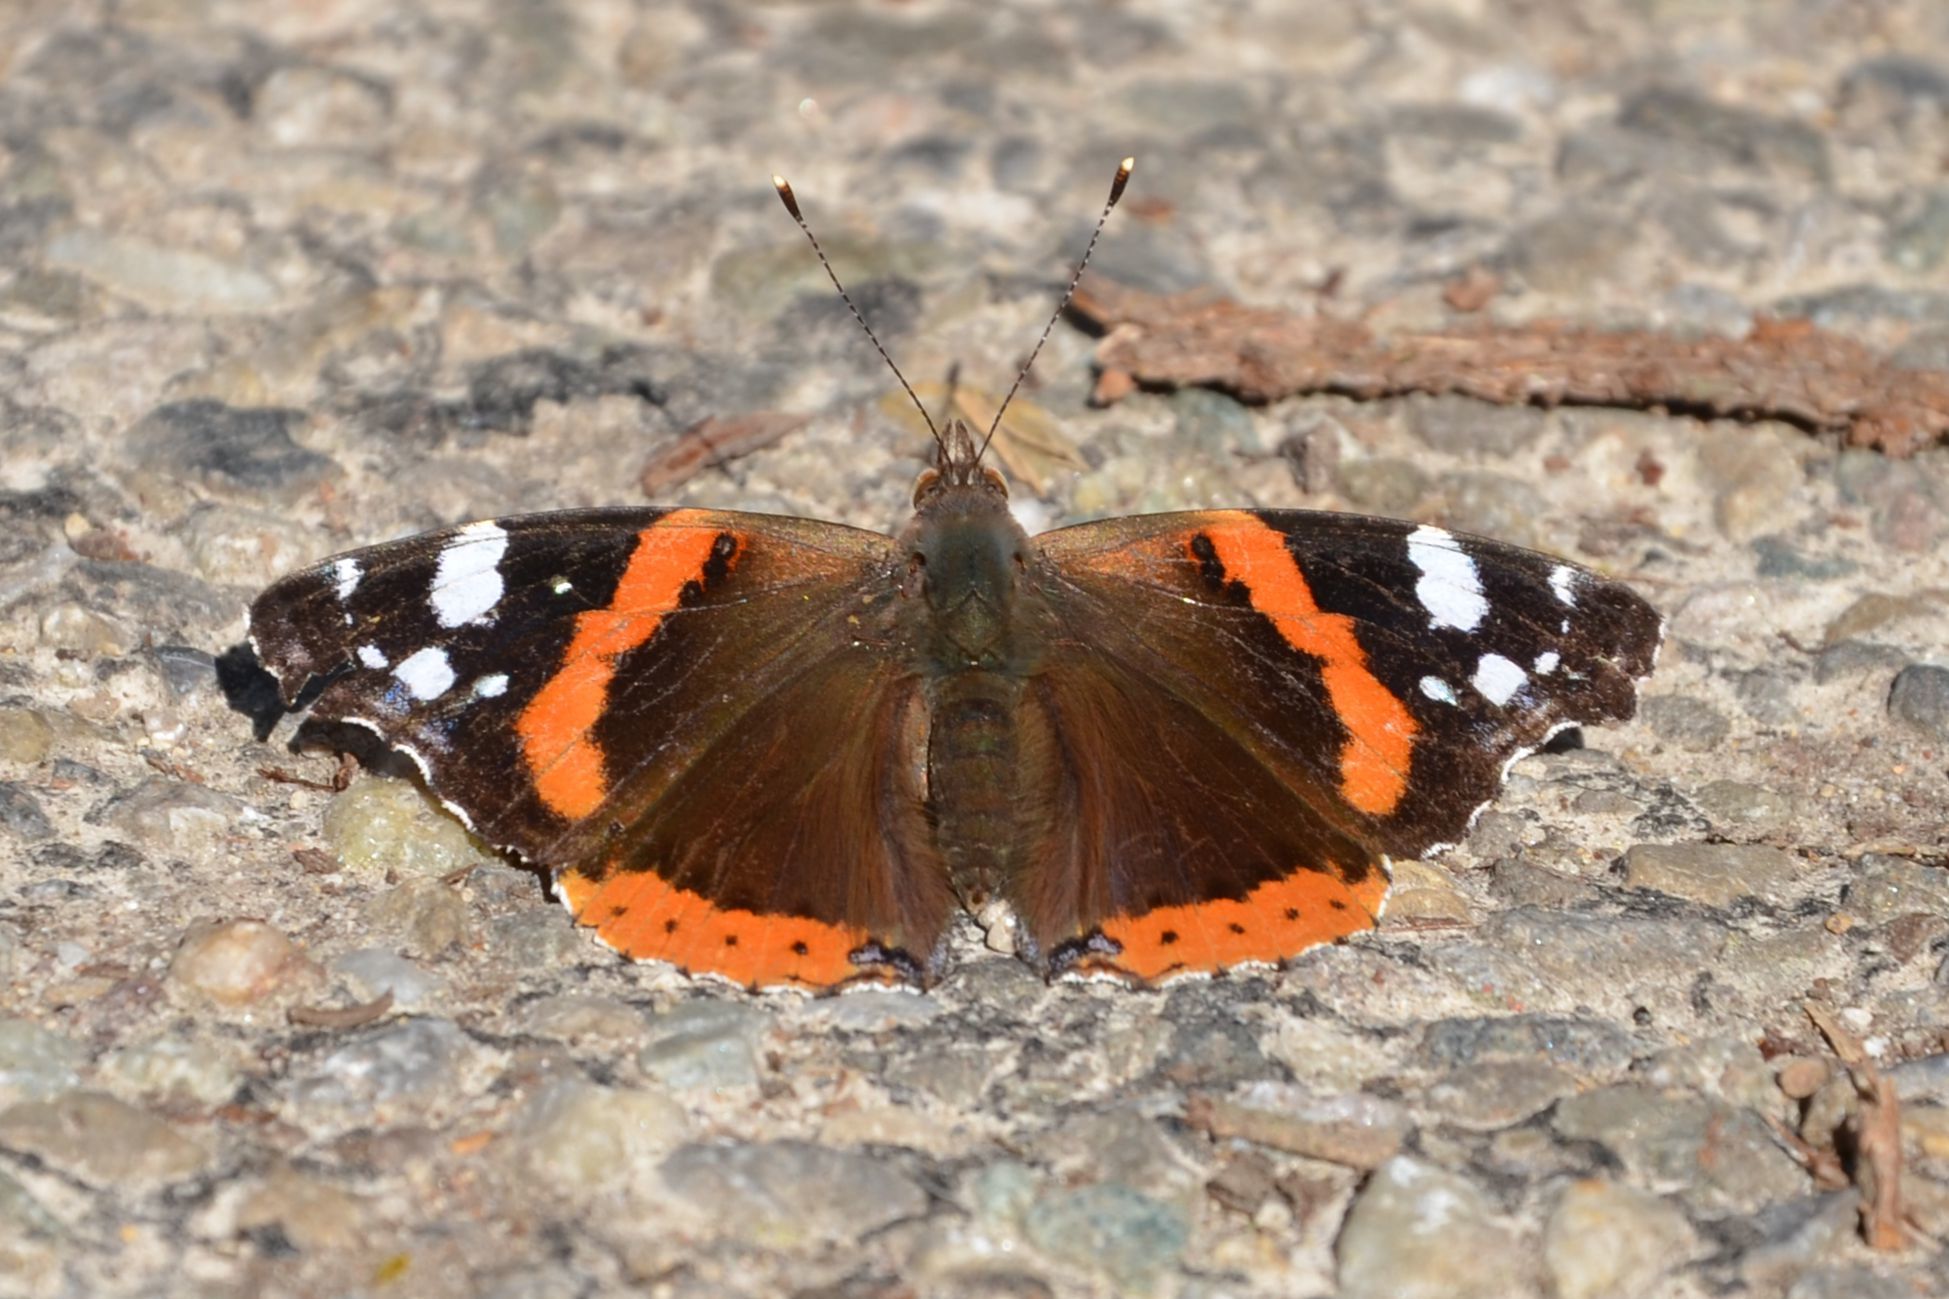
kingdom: Animalia
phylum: Arthropoda
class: Insecta
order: Lepidoptera
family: Nymphalidae
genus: Vanessa
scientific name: Vanessa atalanta
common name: Red admiral
